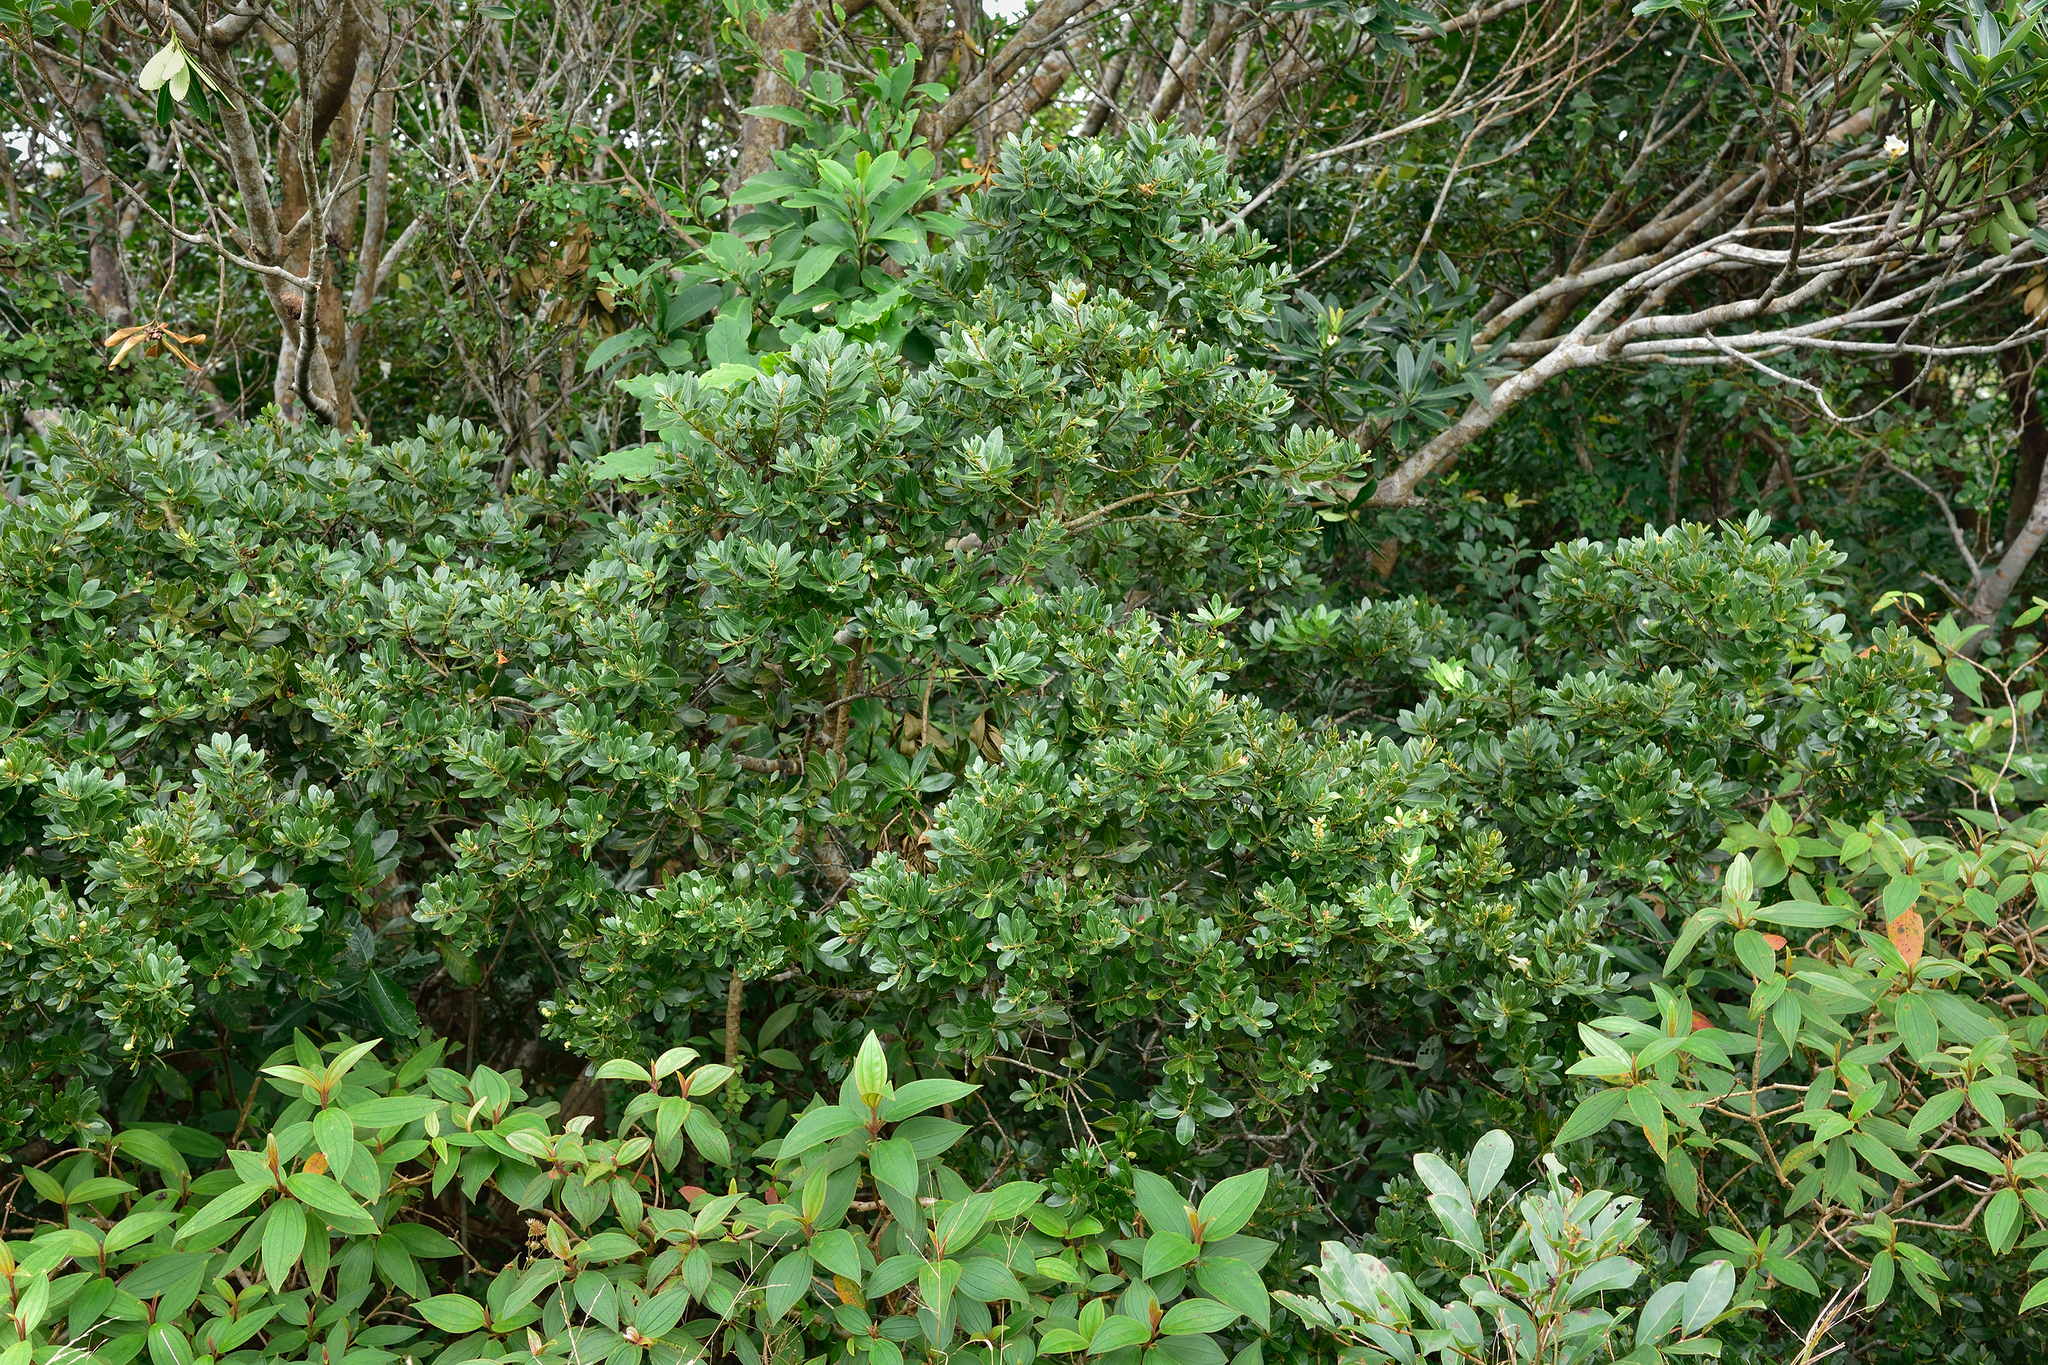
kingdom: Plantae
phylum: Tracheophyta
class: Magnoliopsida
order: Fagales
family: Myricaceae
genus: Morella
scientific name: Morella adenophora
